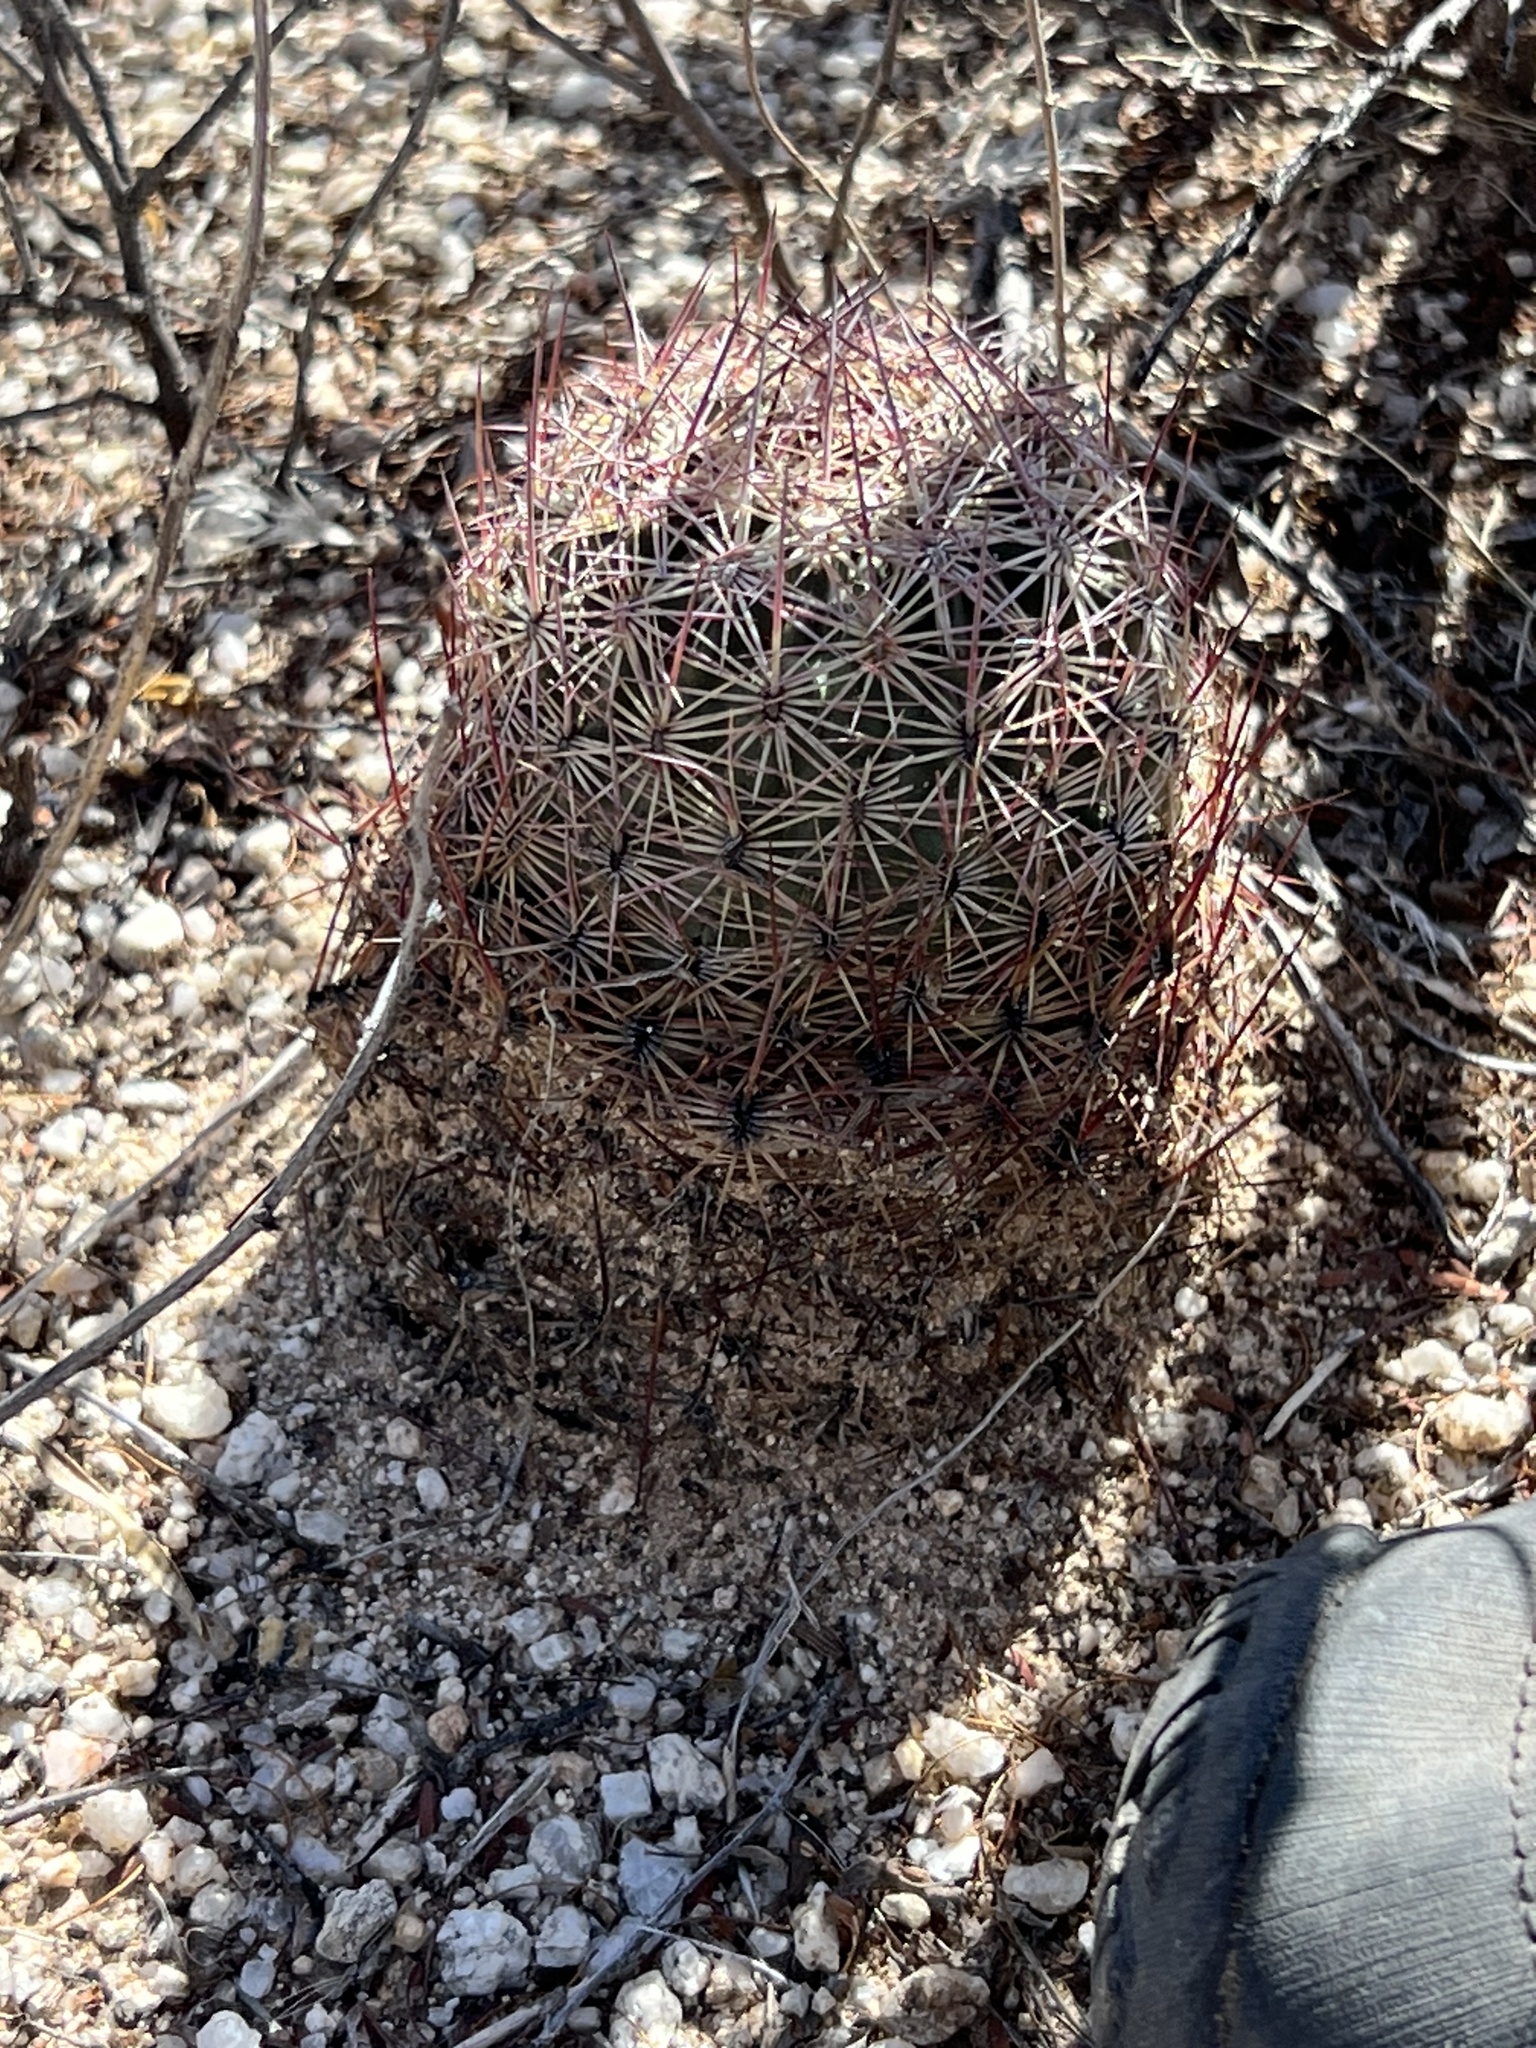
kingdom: Plantae
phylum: Tracheophyta
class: Magnoliopsida
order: Caryophyllales
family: Cactaceae
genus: Sclerocactus
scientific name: Sclerocactus johnsonii
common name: Eight-spine fishhook cactus
